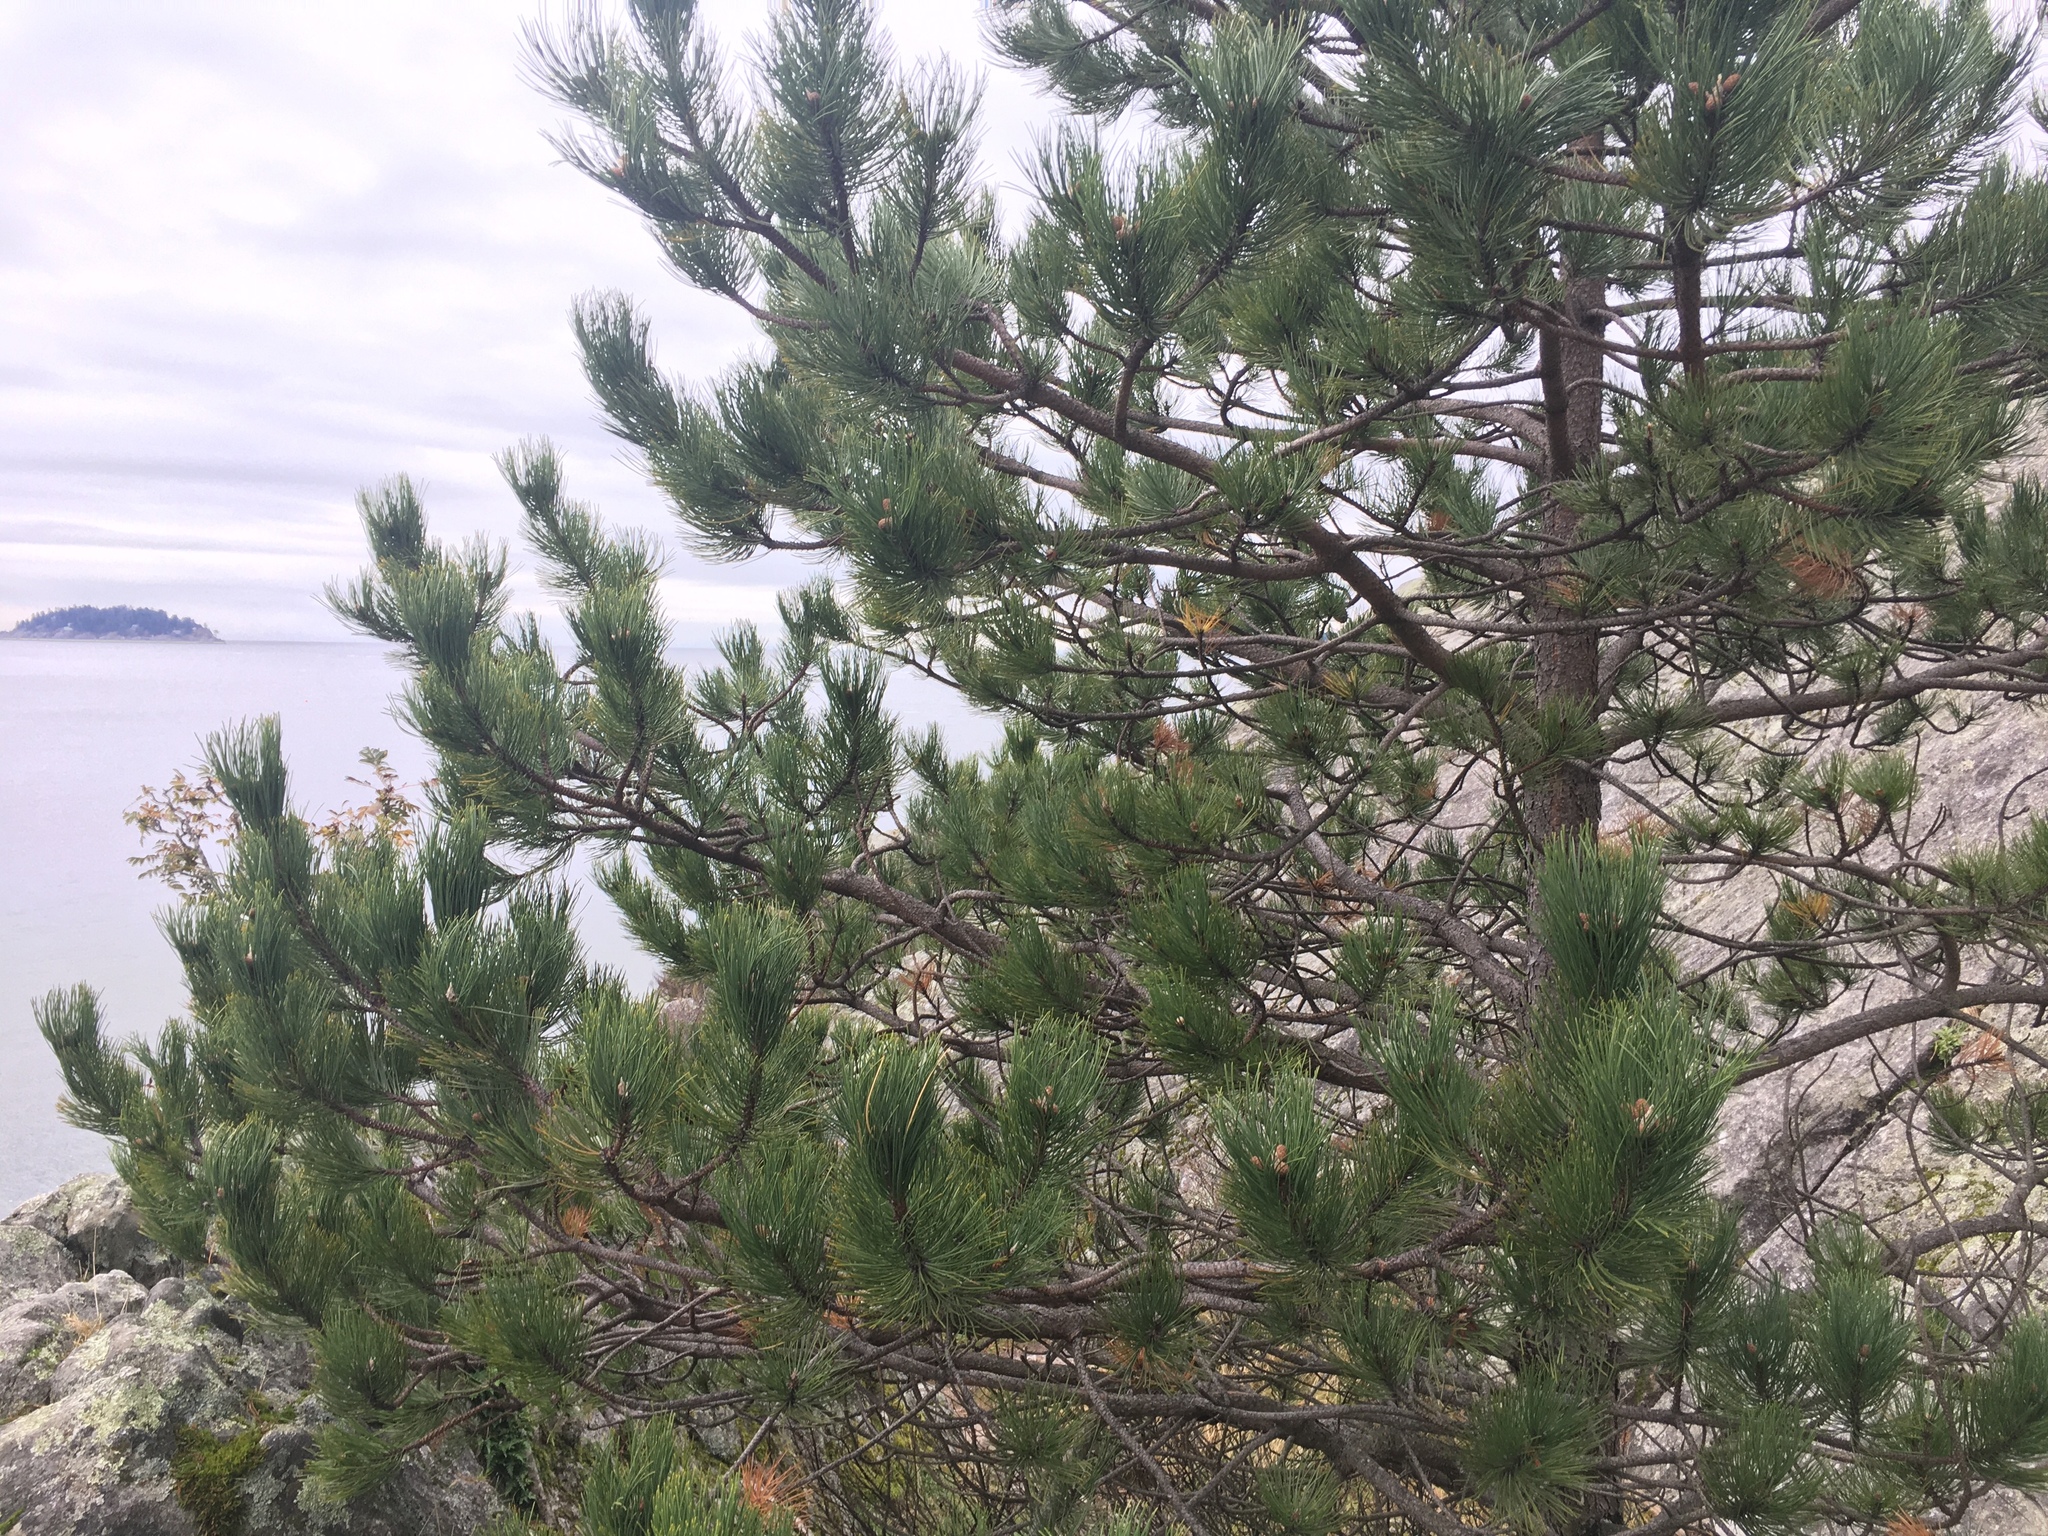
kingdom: Plantae
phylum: Tracheophyta
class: Pinopsida
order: Pinales
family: Pinaceae
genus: Pinus
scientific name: Pinus contorta
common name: Lodgepole pine
